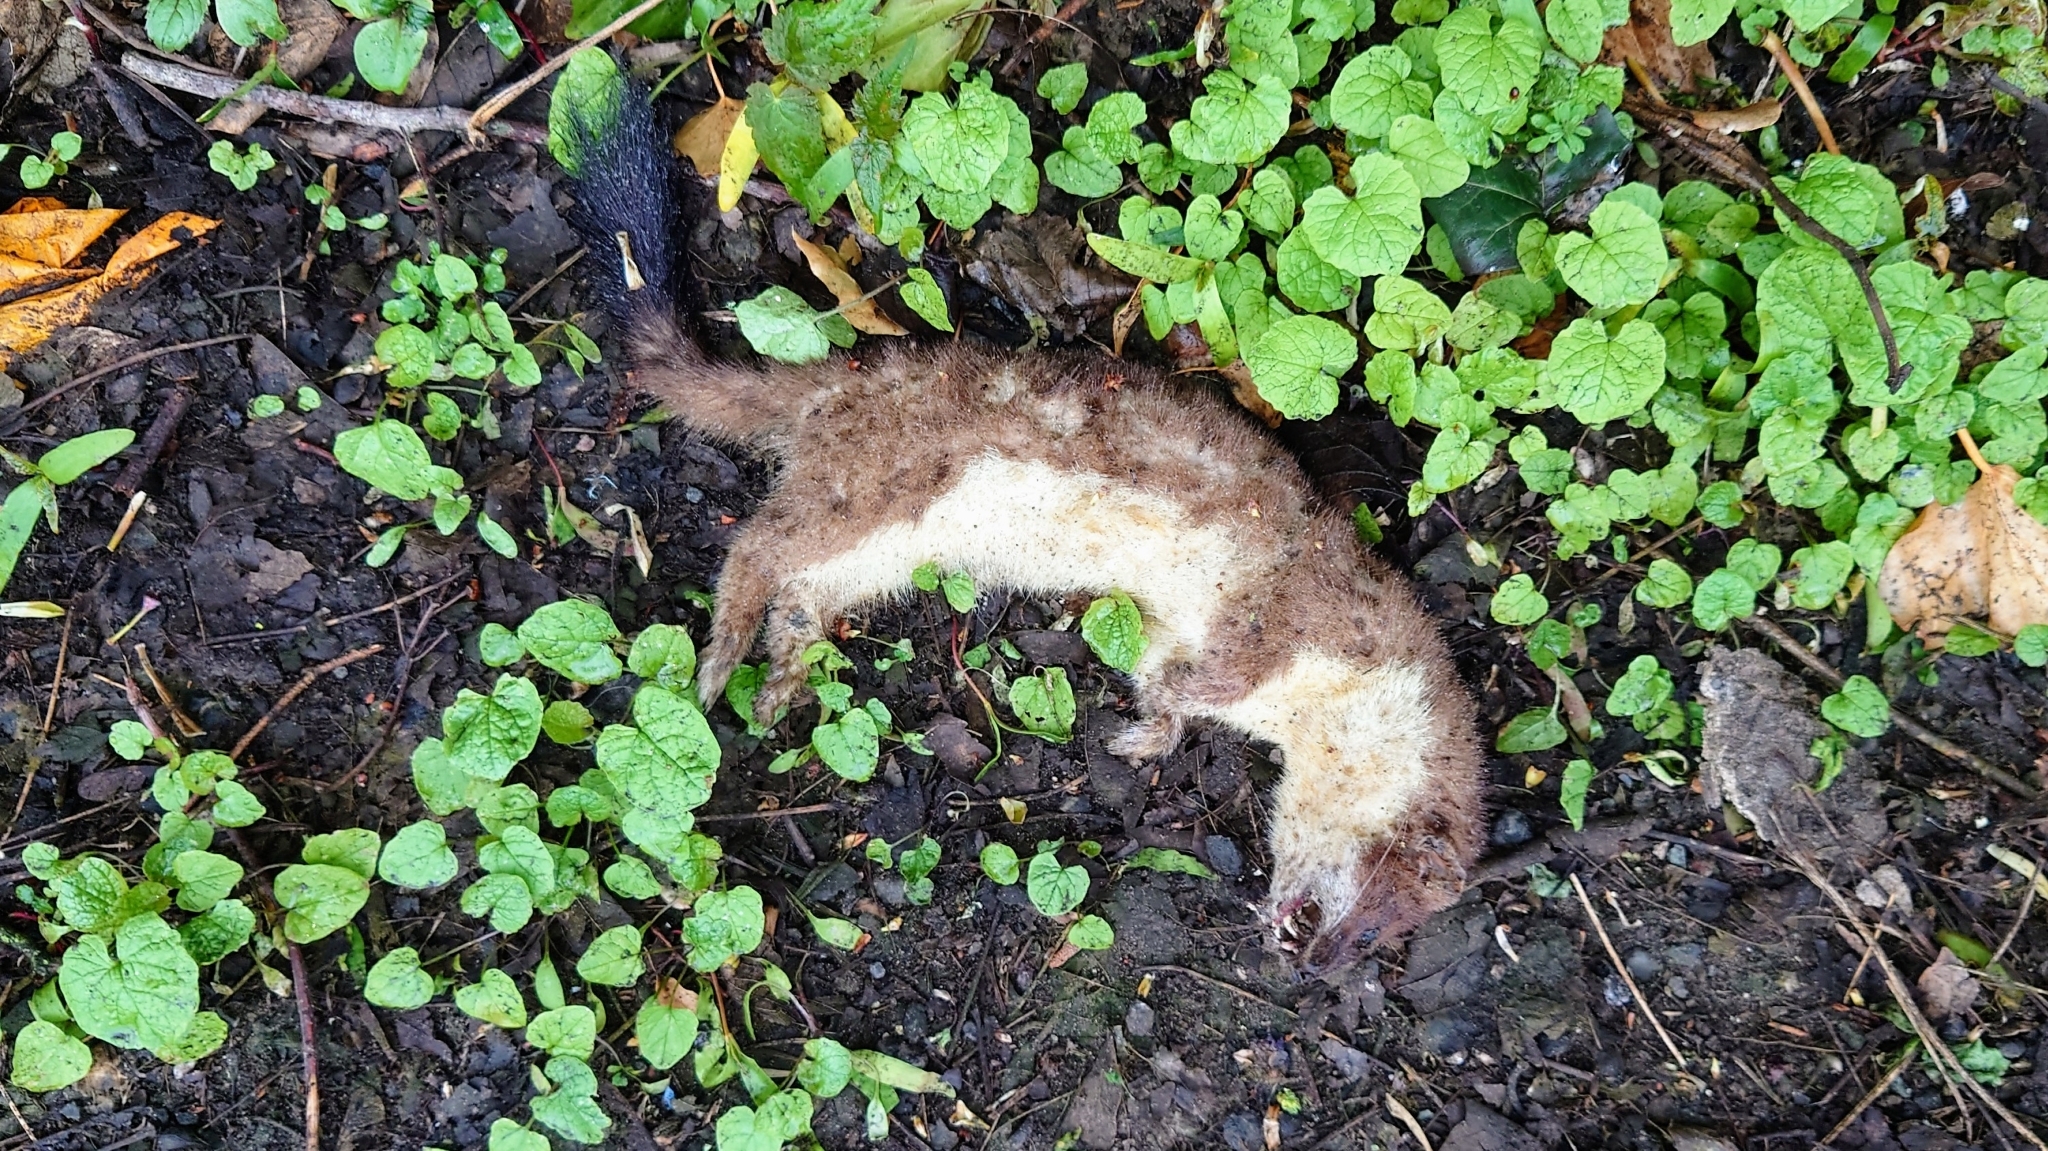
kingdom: Animalia
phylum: Chordata
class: Mammalia
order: Carnivora
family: Mustelidae
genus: Mustela
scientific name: Mustela erminea
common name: Stoat
